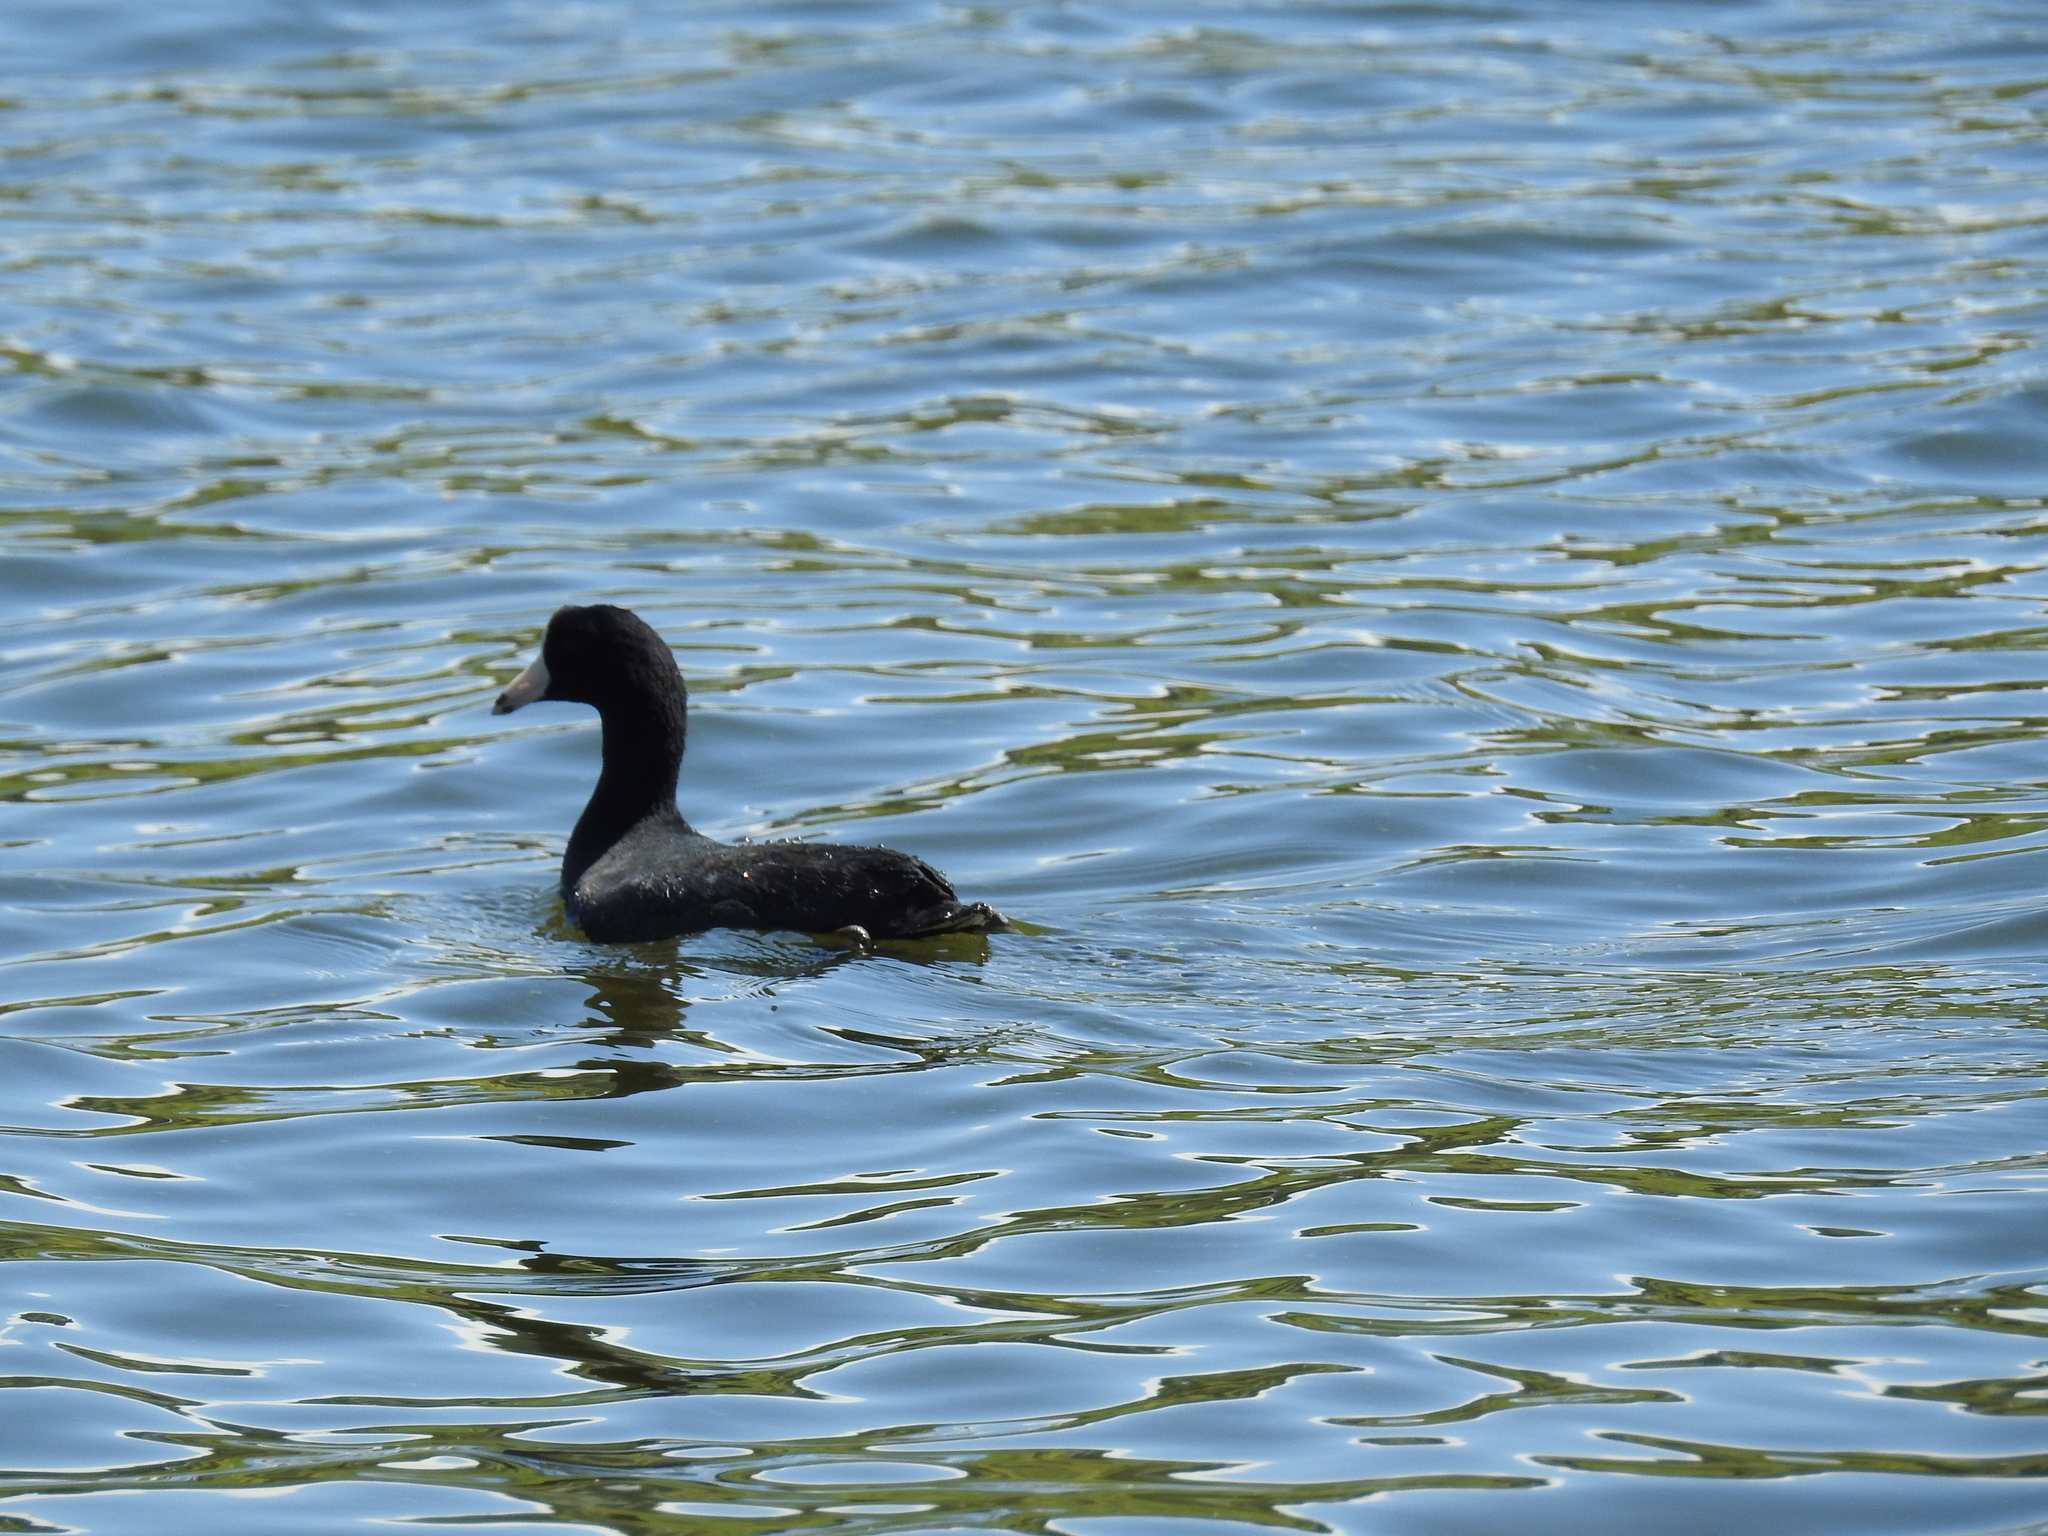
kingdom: Animalia
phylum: Chordata
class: Aves
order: Gruiformes
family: Rallidae
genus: Fulica
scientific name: Fulica americana
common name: American coot
